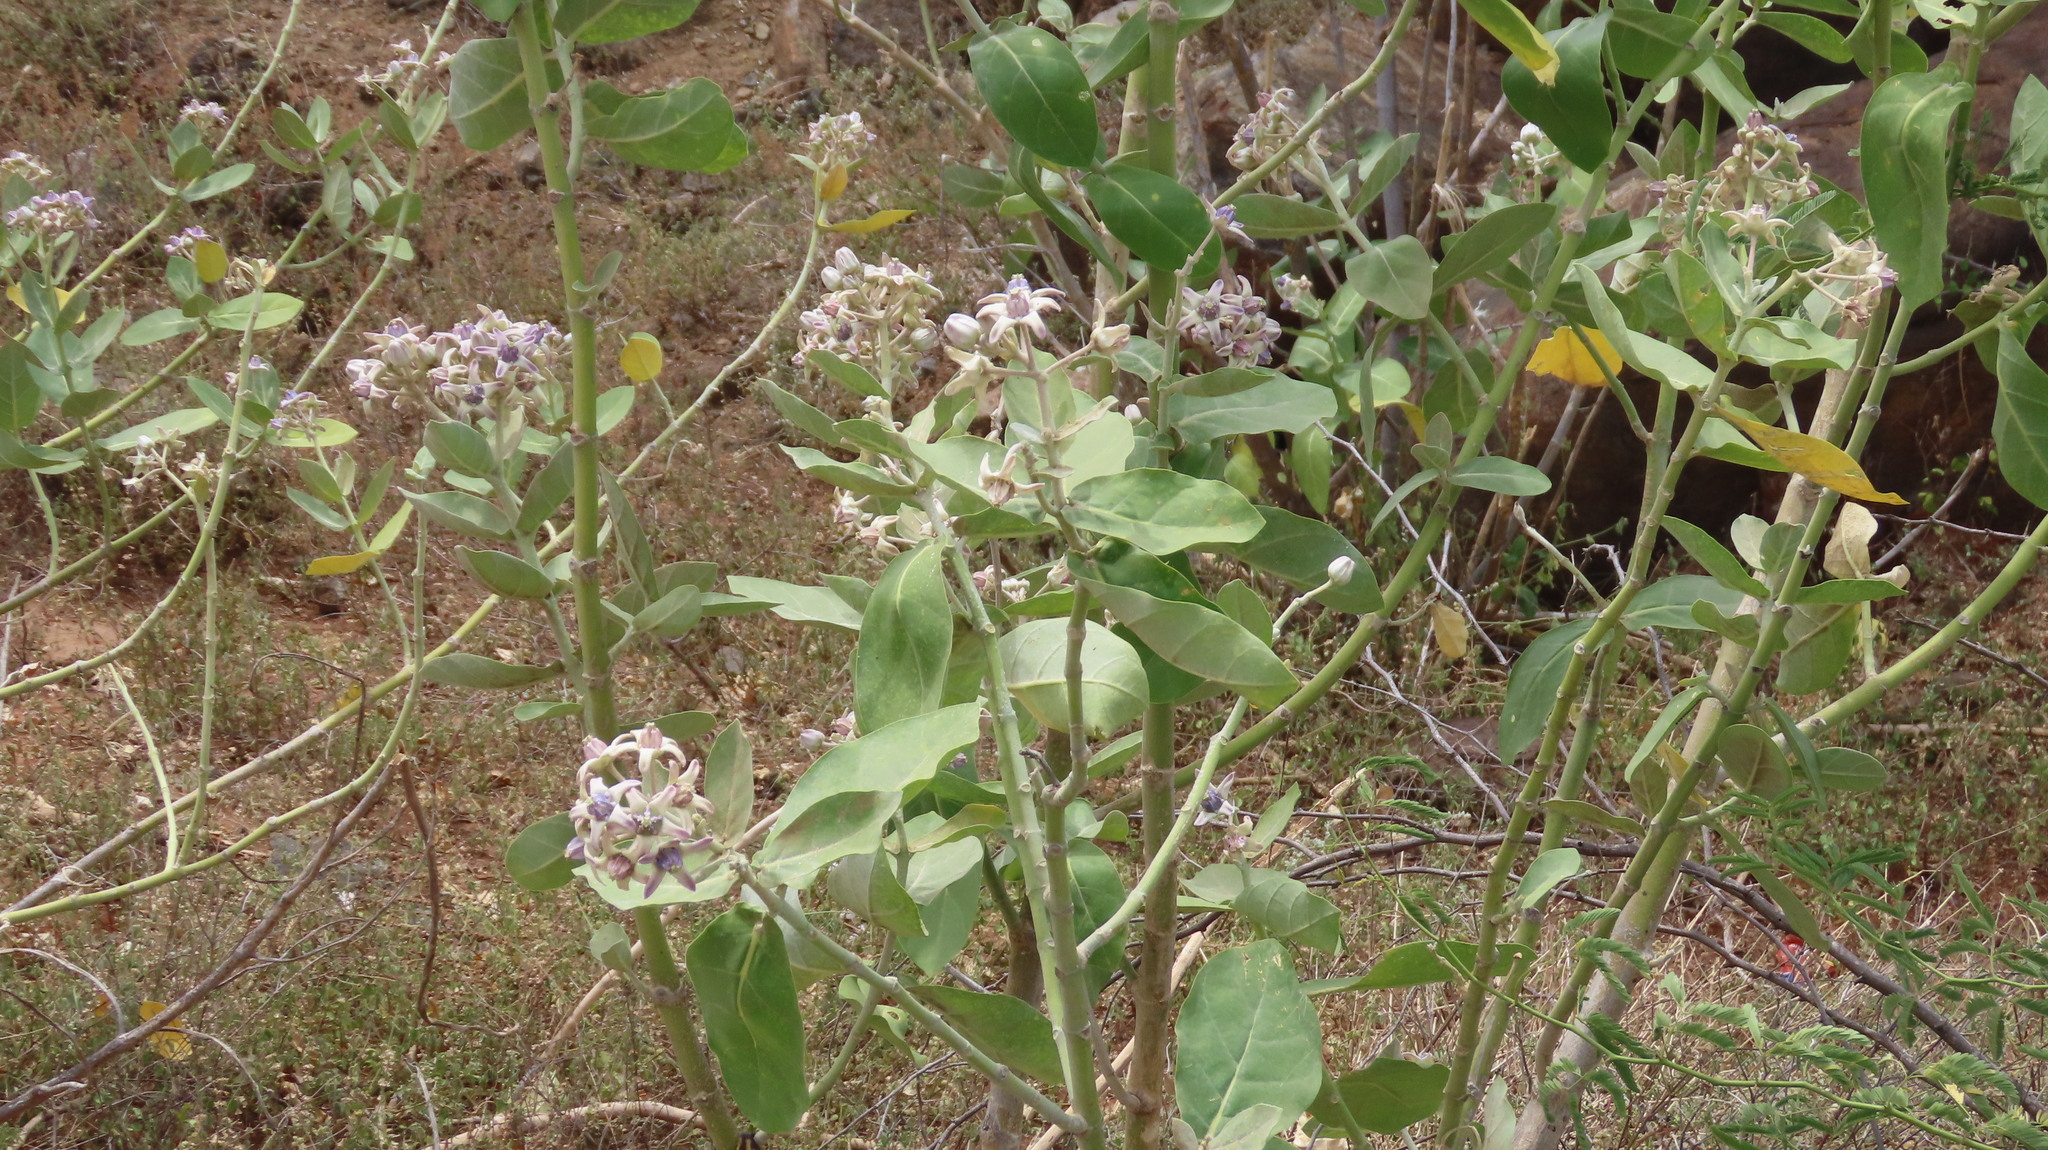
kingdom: Plantae
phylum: Tracheophyta
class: Magnoliopsida
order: Gentianales
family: Apocynaceae
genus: Calotropis
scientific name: Calotropis gigantea
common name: Crown flower
